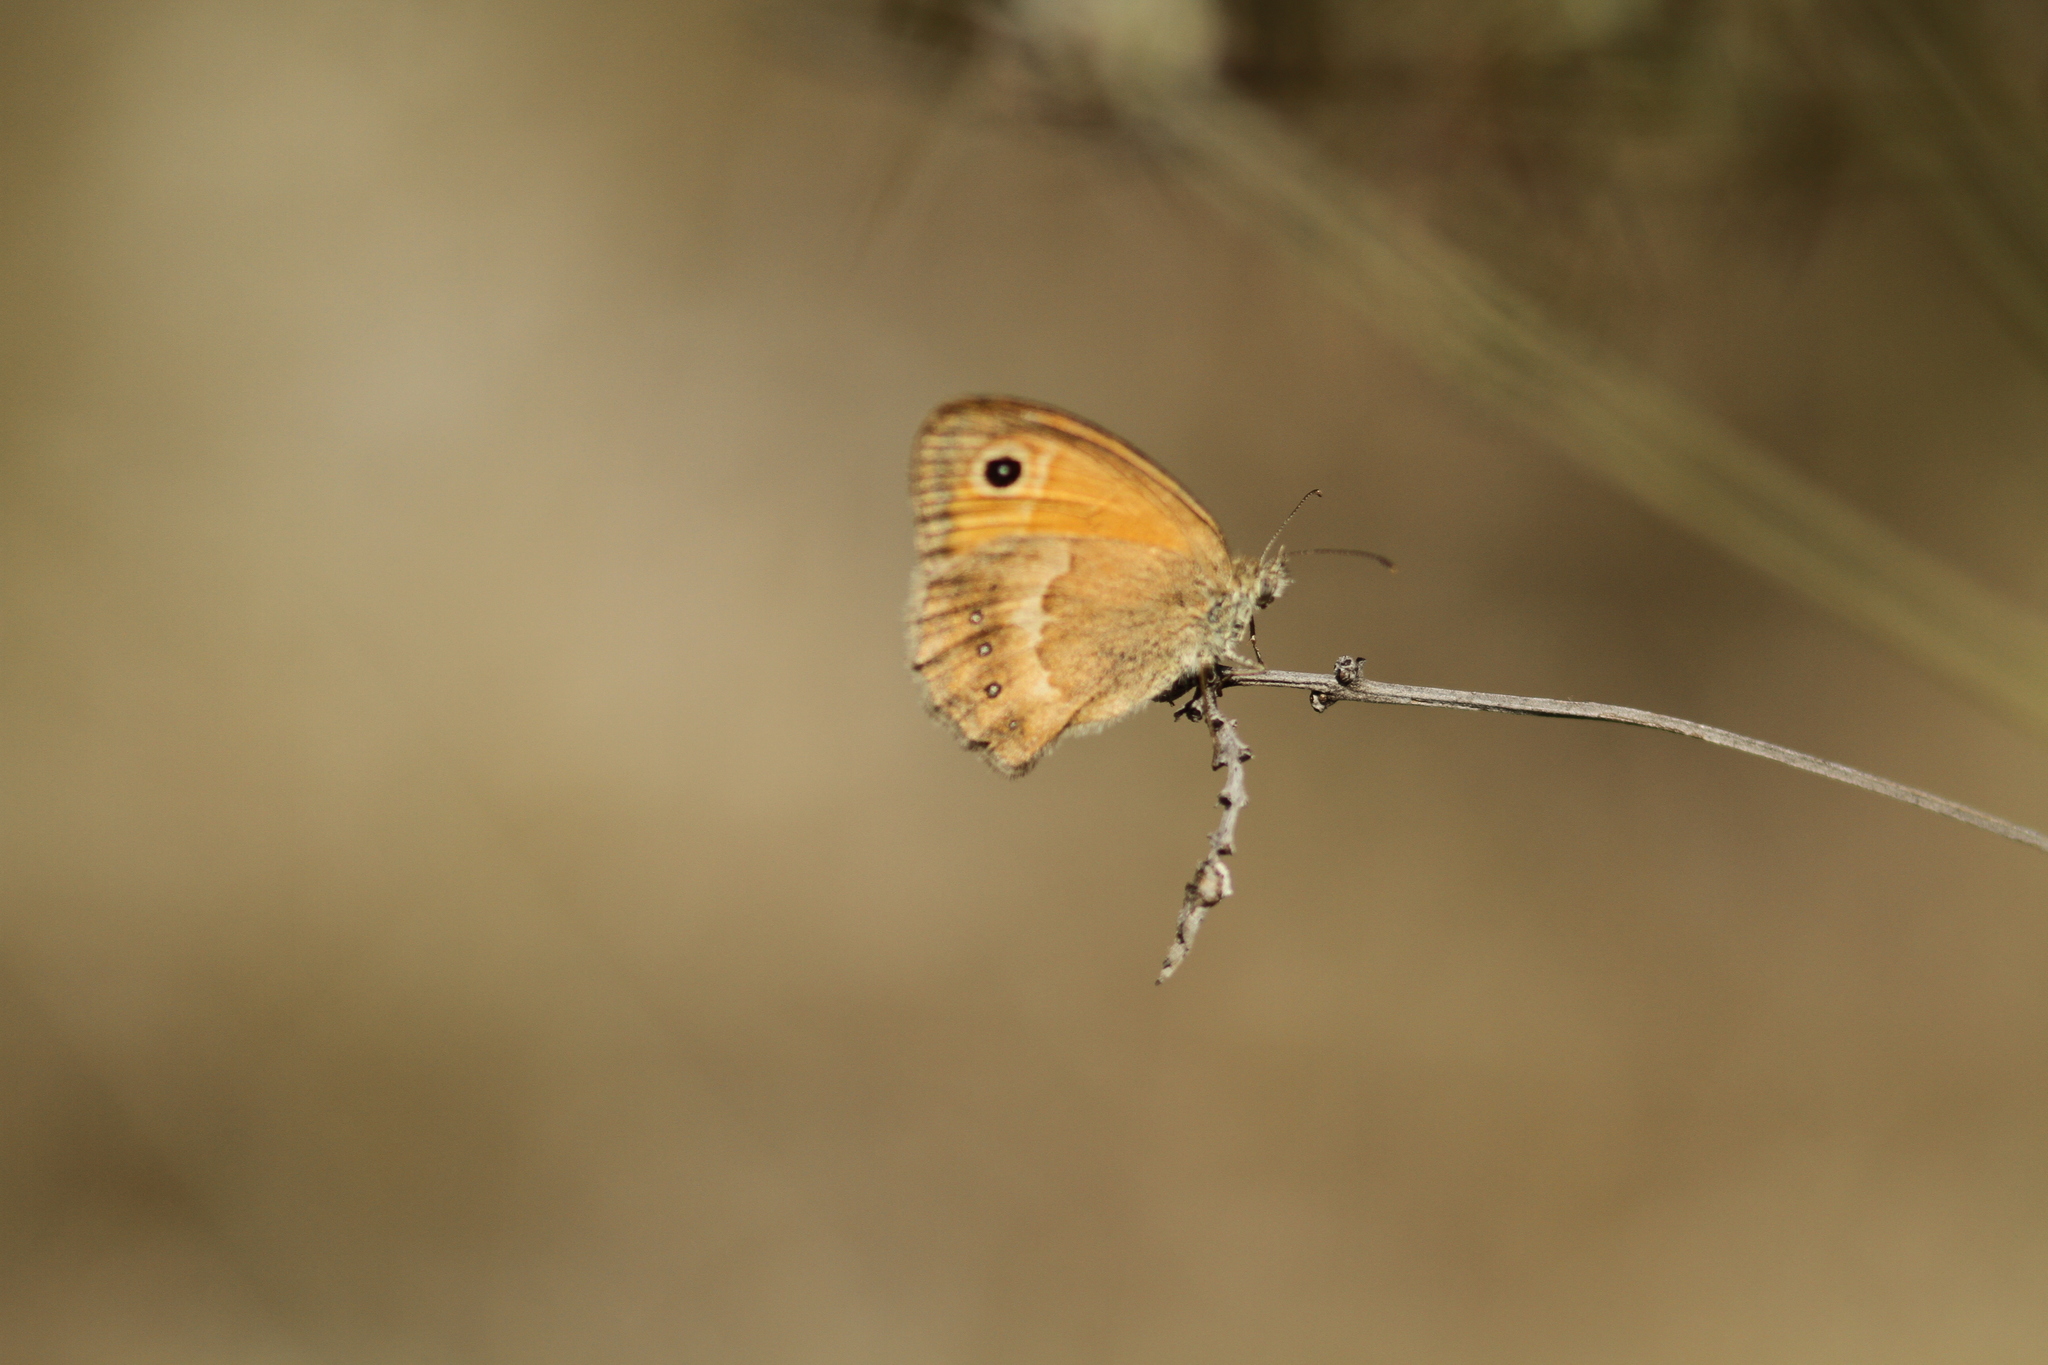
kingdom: Animalia
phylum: Arthropoda
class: Insecta
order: Lepidoptera
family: Nymphalidae
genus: Coenonympha
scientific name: Coenonympha pamphilus
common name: Small heath
